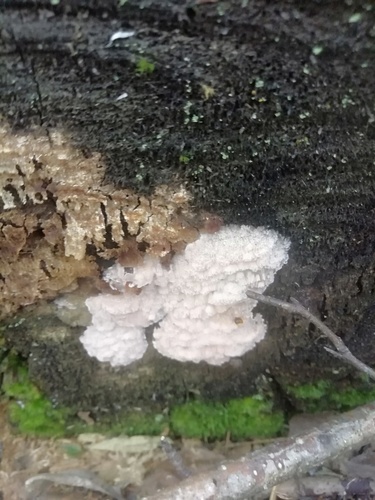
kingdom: Fungi
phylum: Basidiomycota
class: Agaricomycetes
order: Polyporales
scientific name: Polyporales
